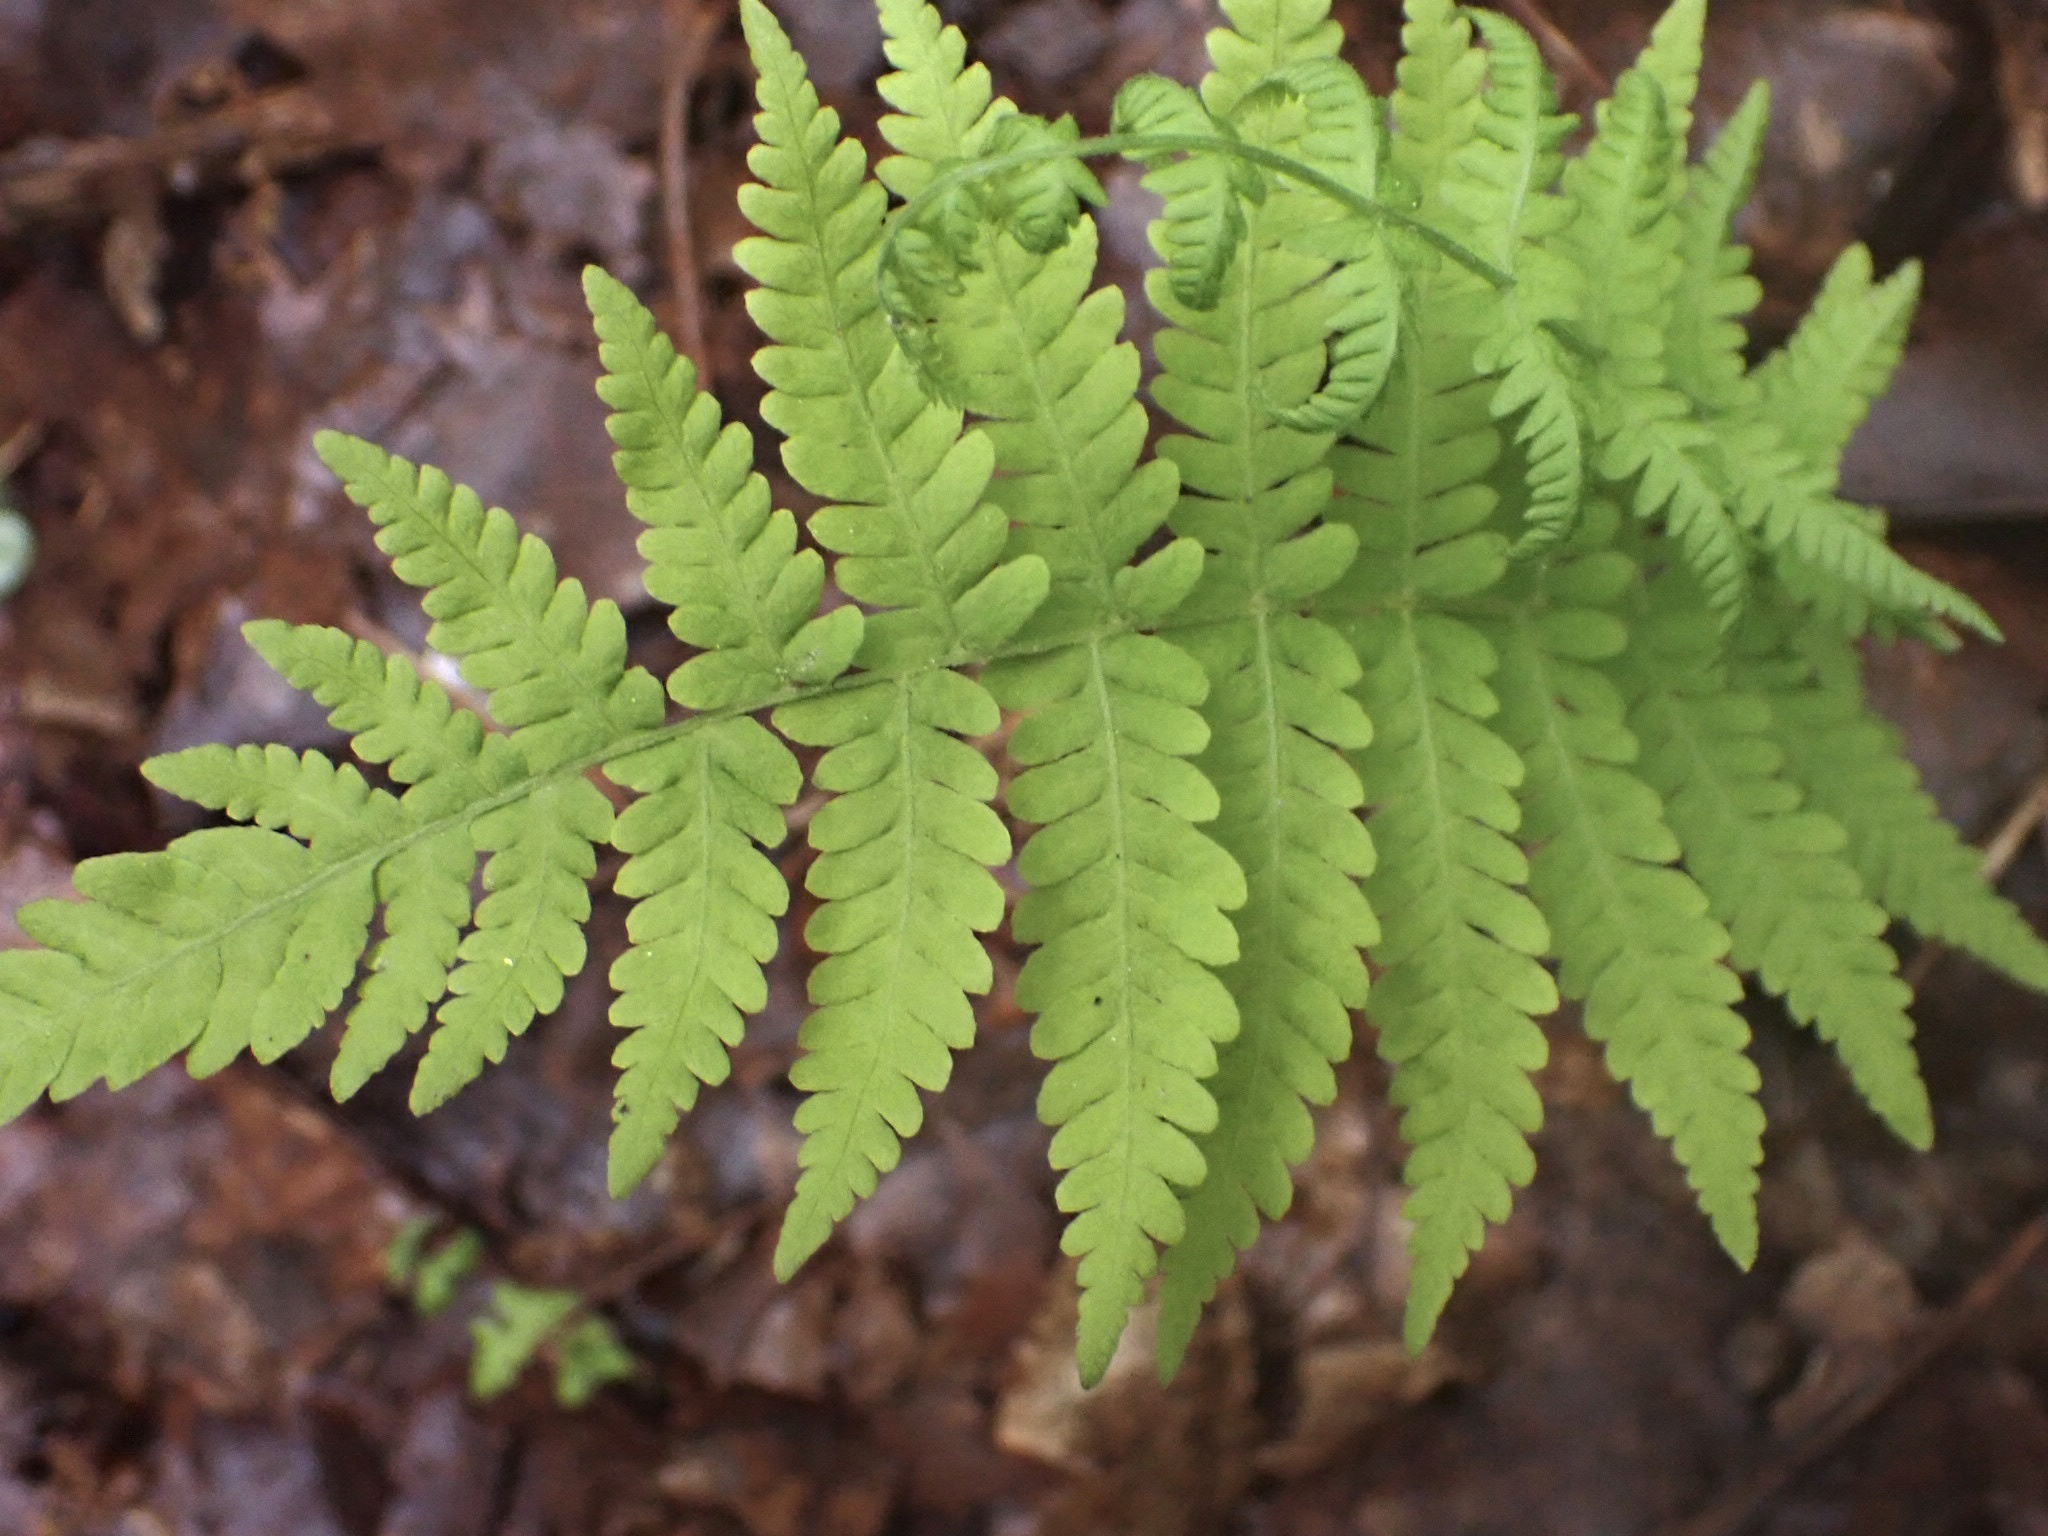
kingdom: Plantae
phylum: Tracheophyta
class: Polypodiopsida
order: Polypodiales
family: Thelypteridaceae
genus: Amauropelta
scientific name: Amauropelta noveboracensis
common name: New york fern
